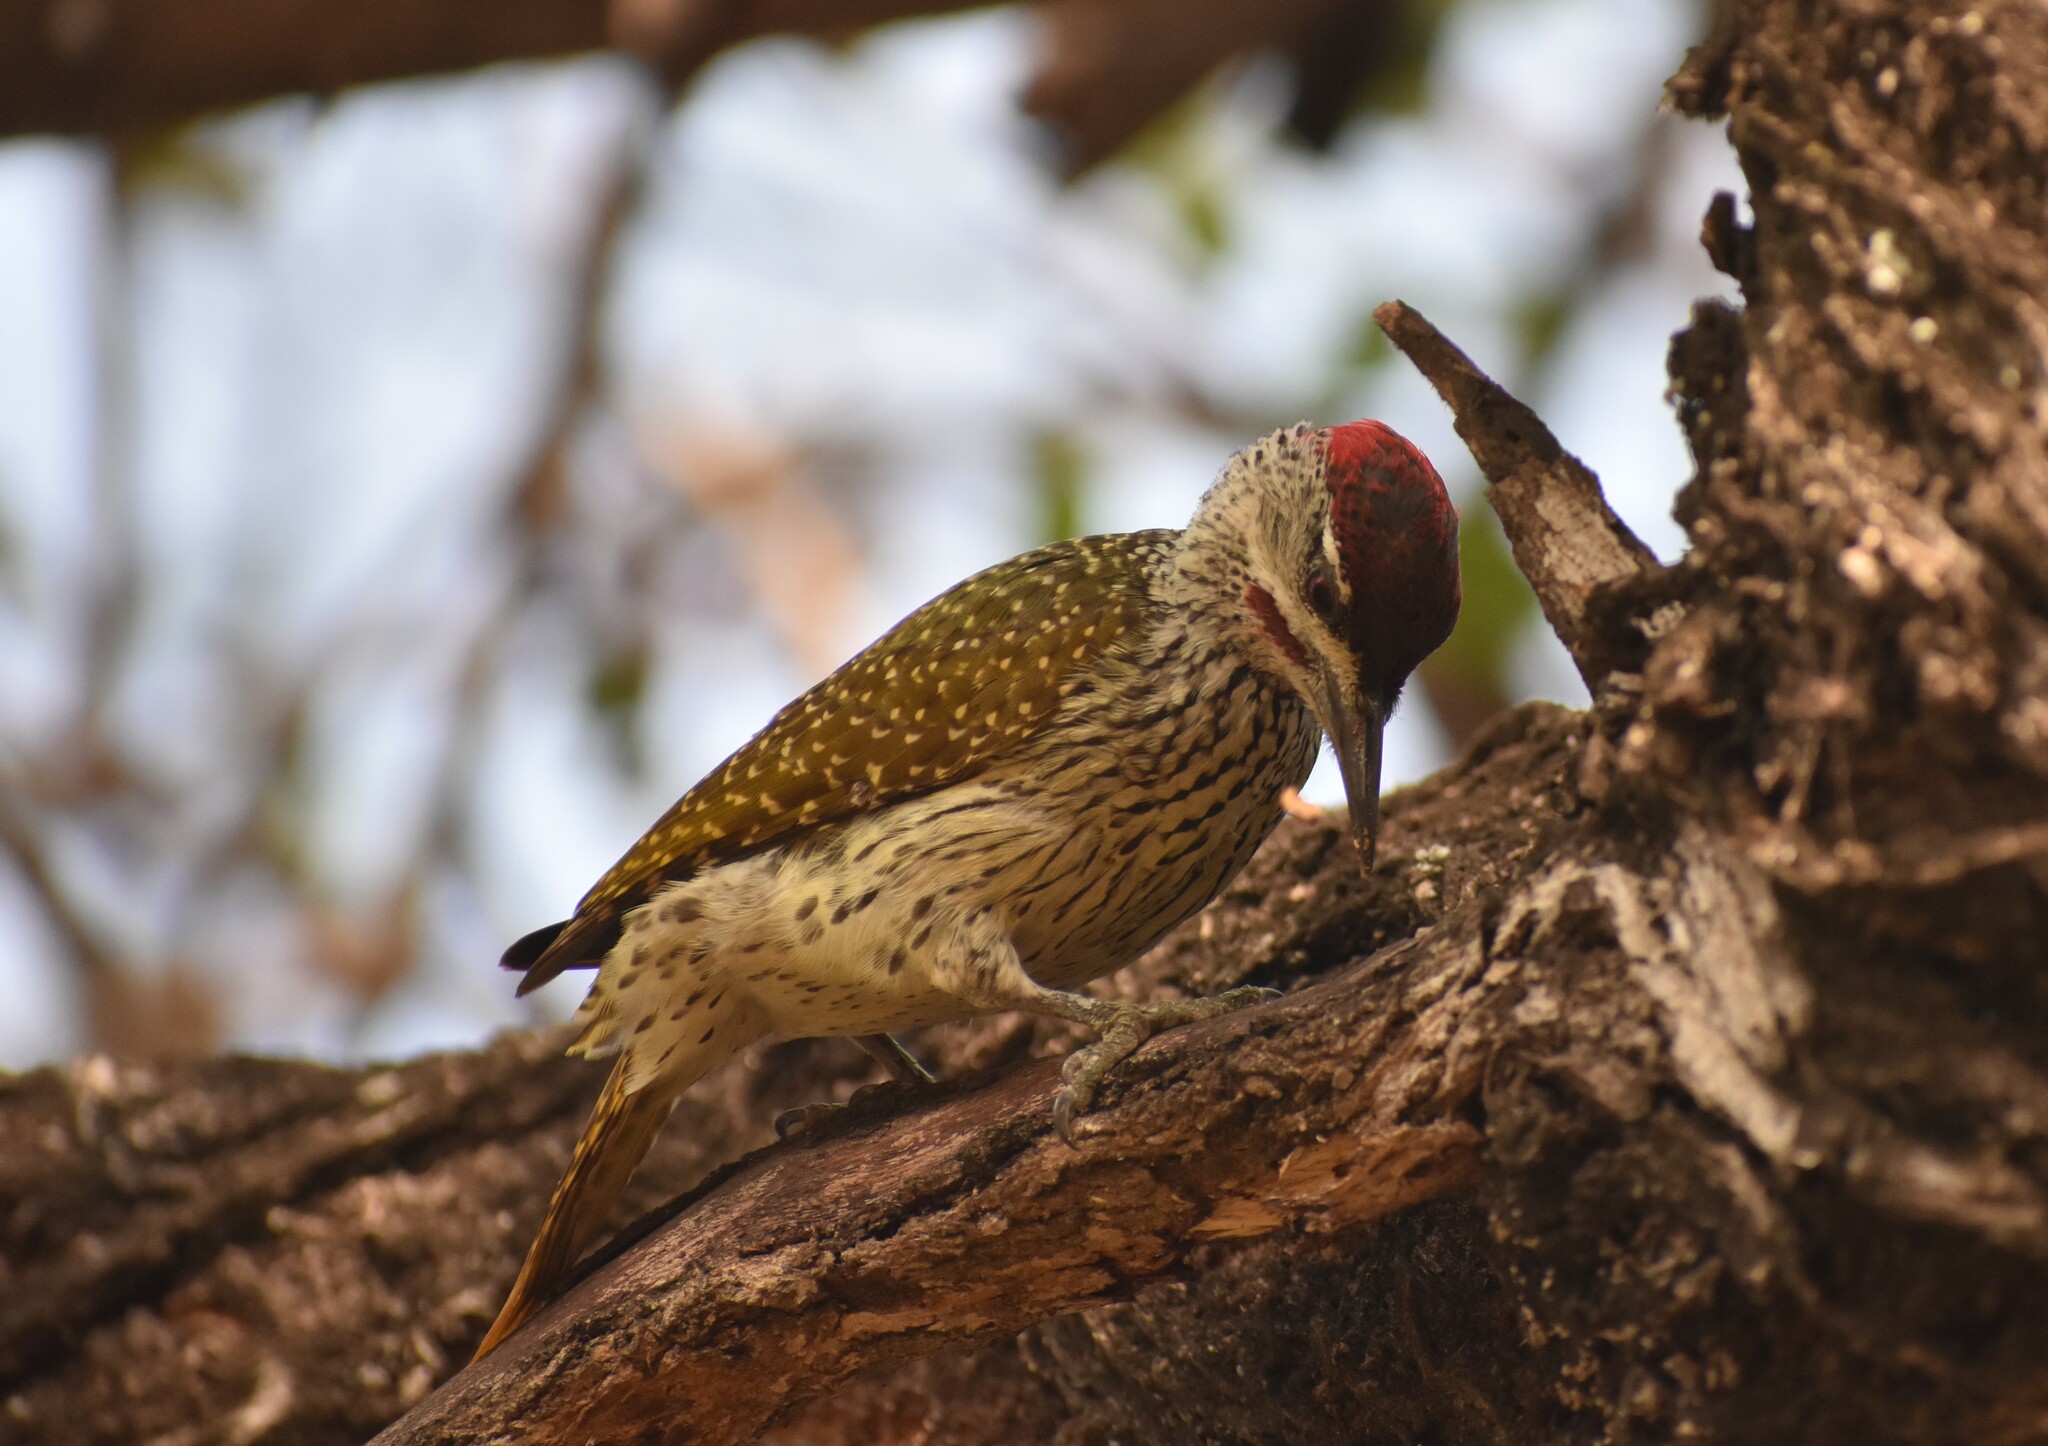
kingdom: Animalia
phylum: Chordata
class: Aves
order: Piciformes
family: Picidae
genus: Campethera
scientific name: Campethera abingoni
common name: Golden-tailed woodpecker
